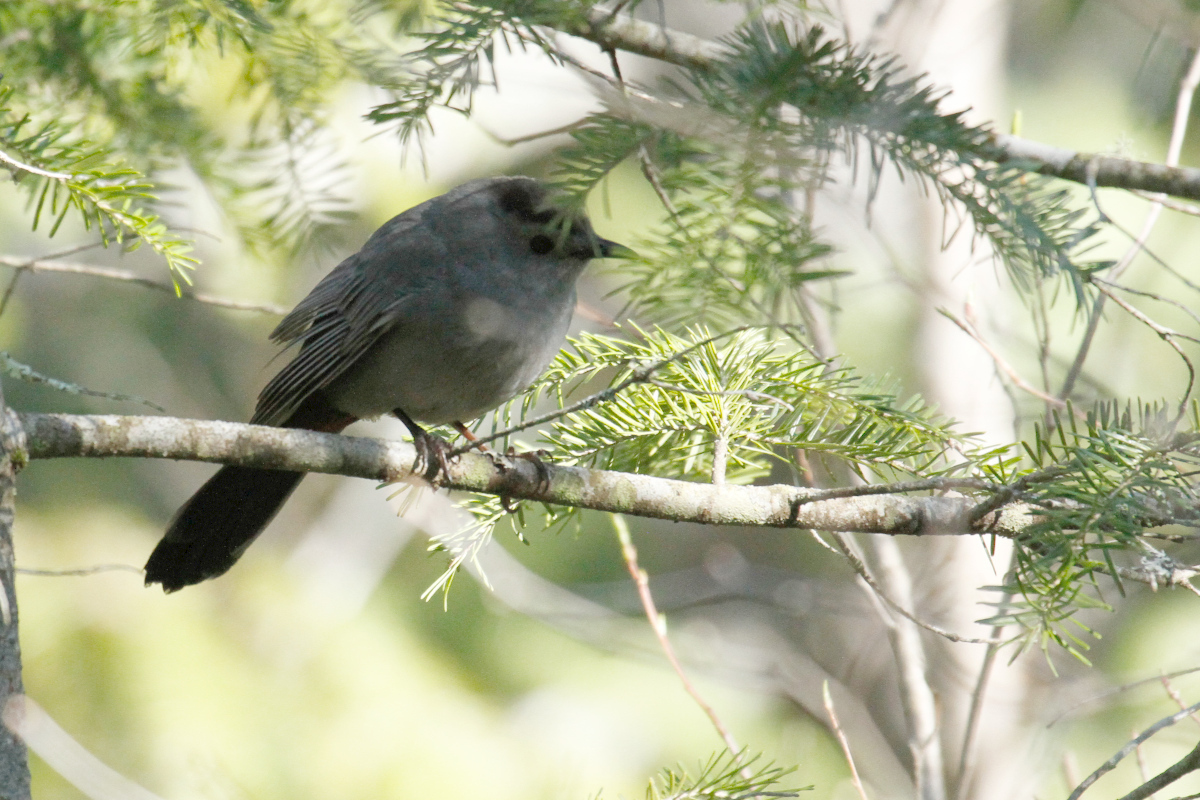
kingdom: Animalia
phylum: Chordata
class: Aves
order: Passeriformes
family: Mimidae
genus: Dumetella
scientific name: Dumetella carolinensis
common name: Gray catbird
